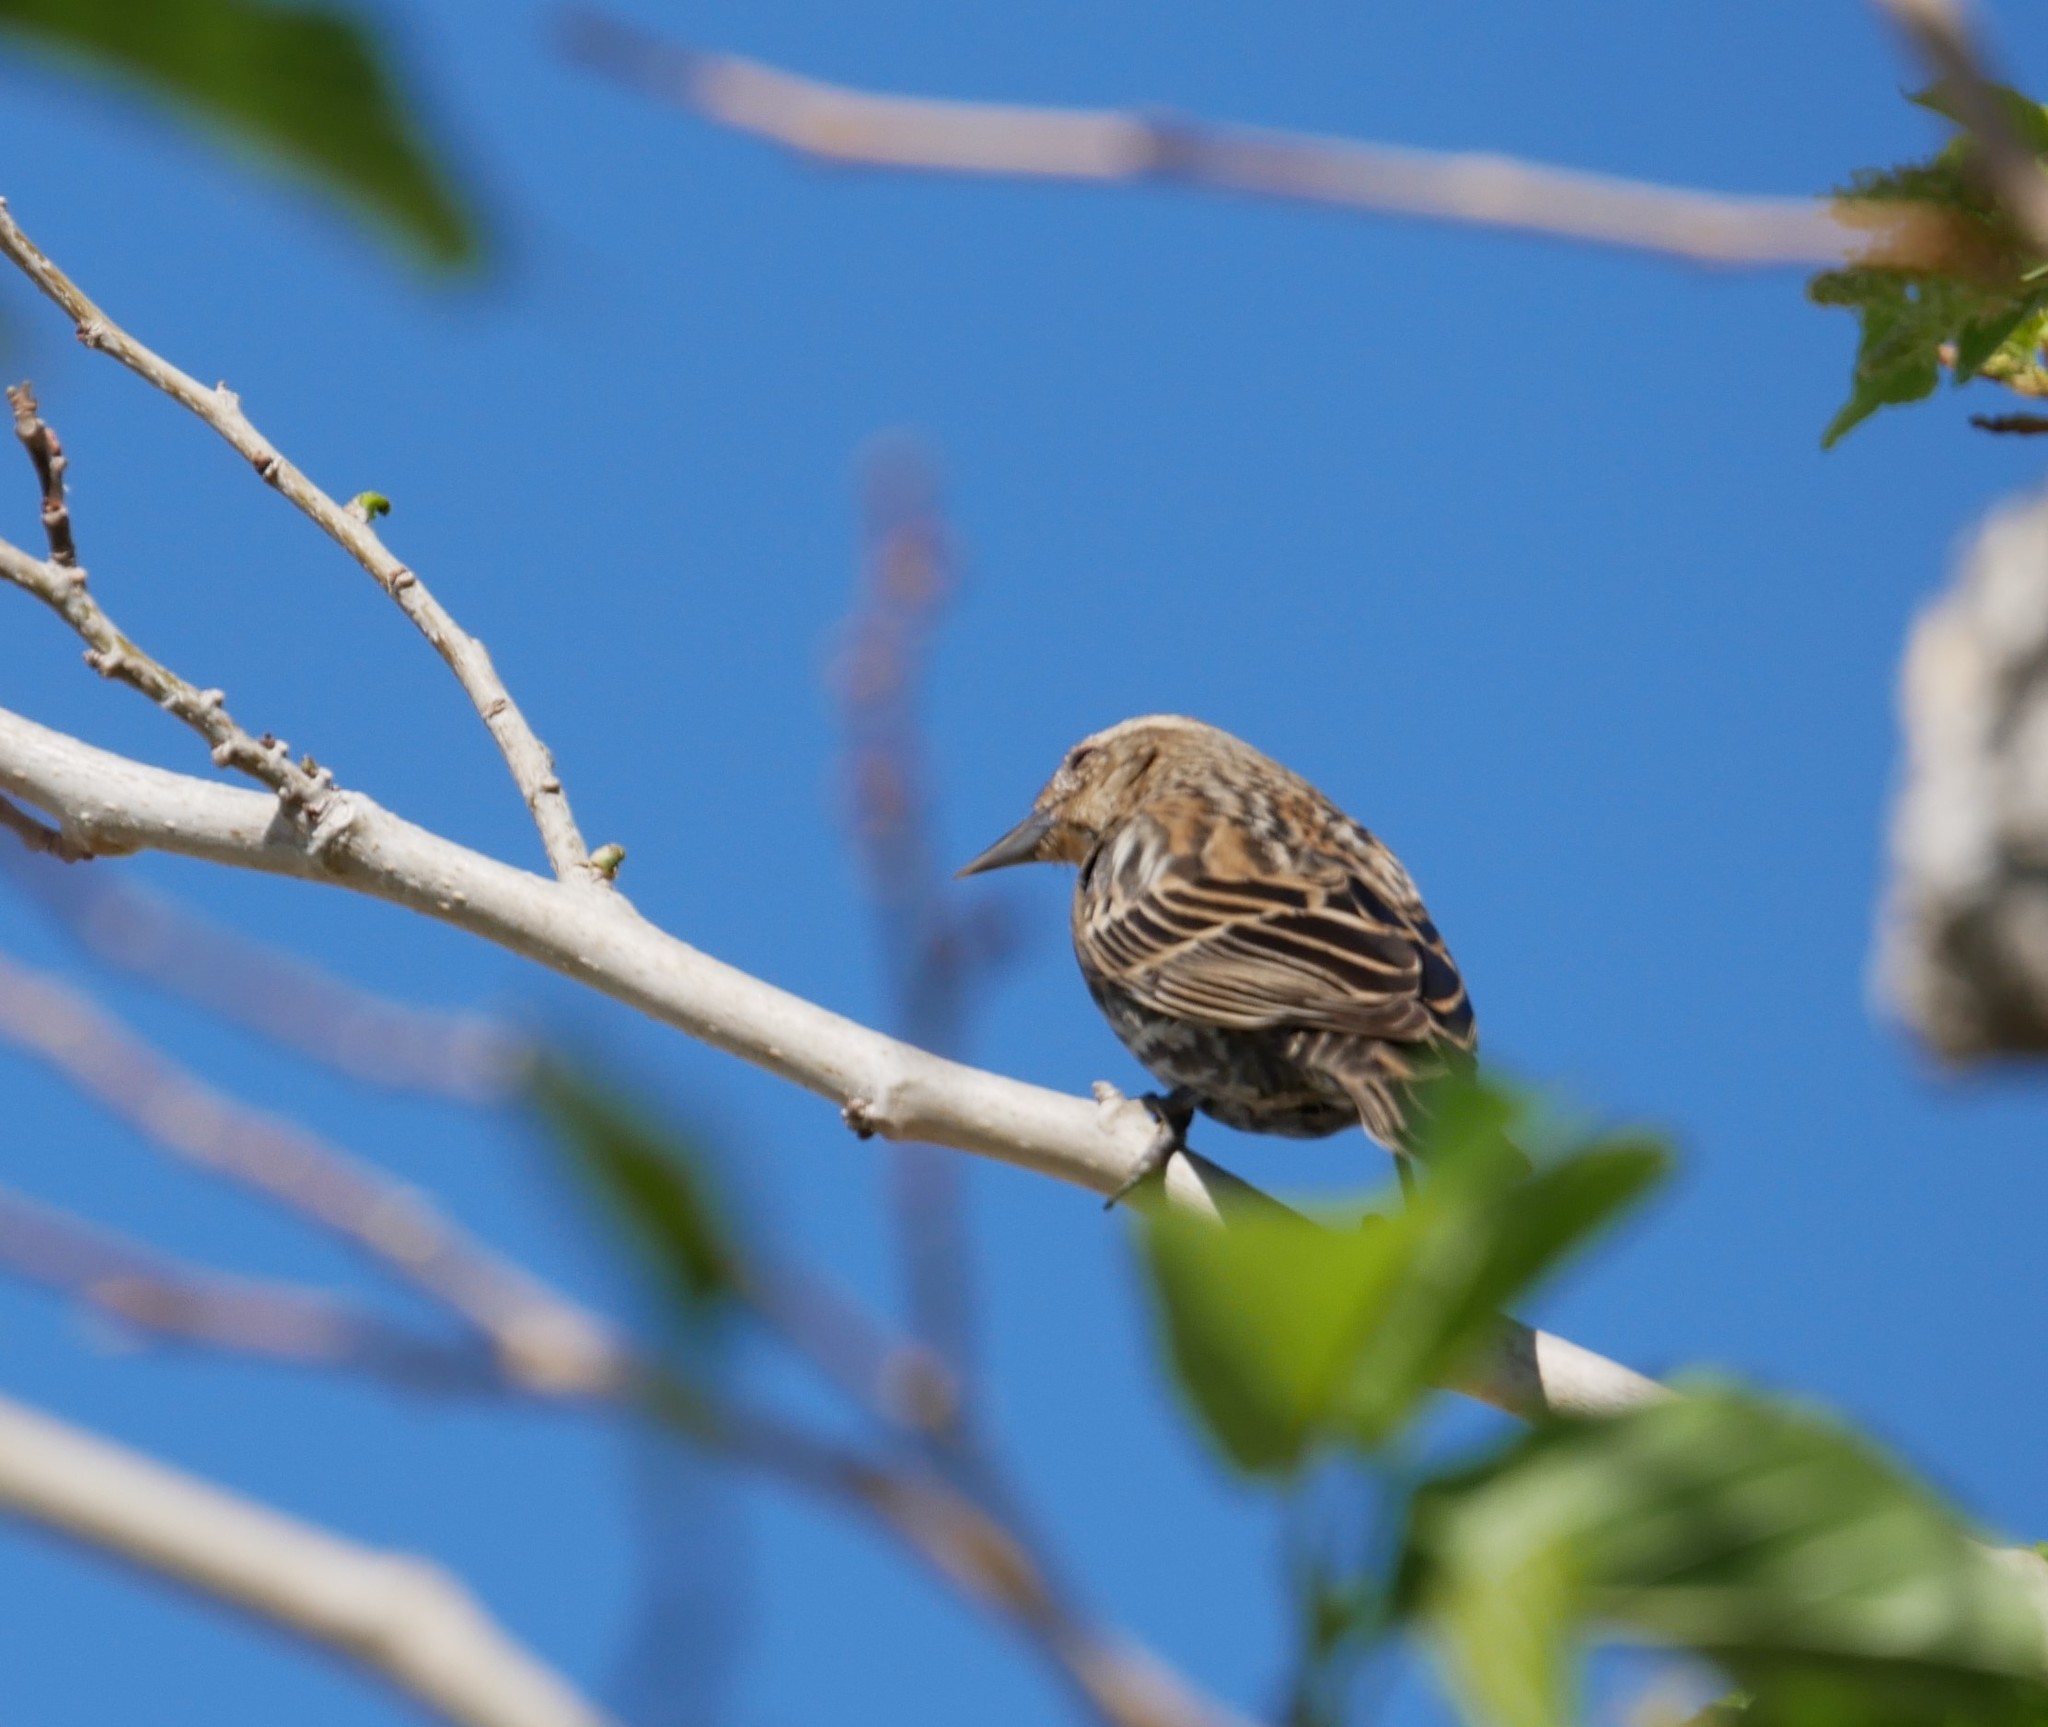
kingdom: Animalia
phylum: Chordata
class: Aves
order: Passeriformes
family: Icteridae
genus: Agelaius
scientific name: Agelaius phoeniceus
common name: Red-winged blackbird
